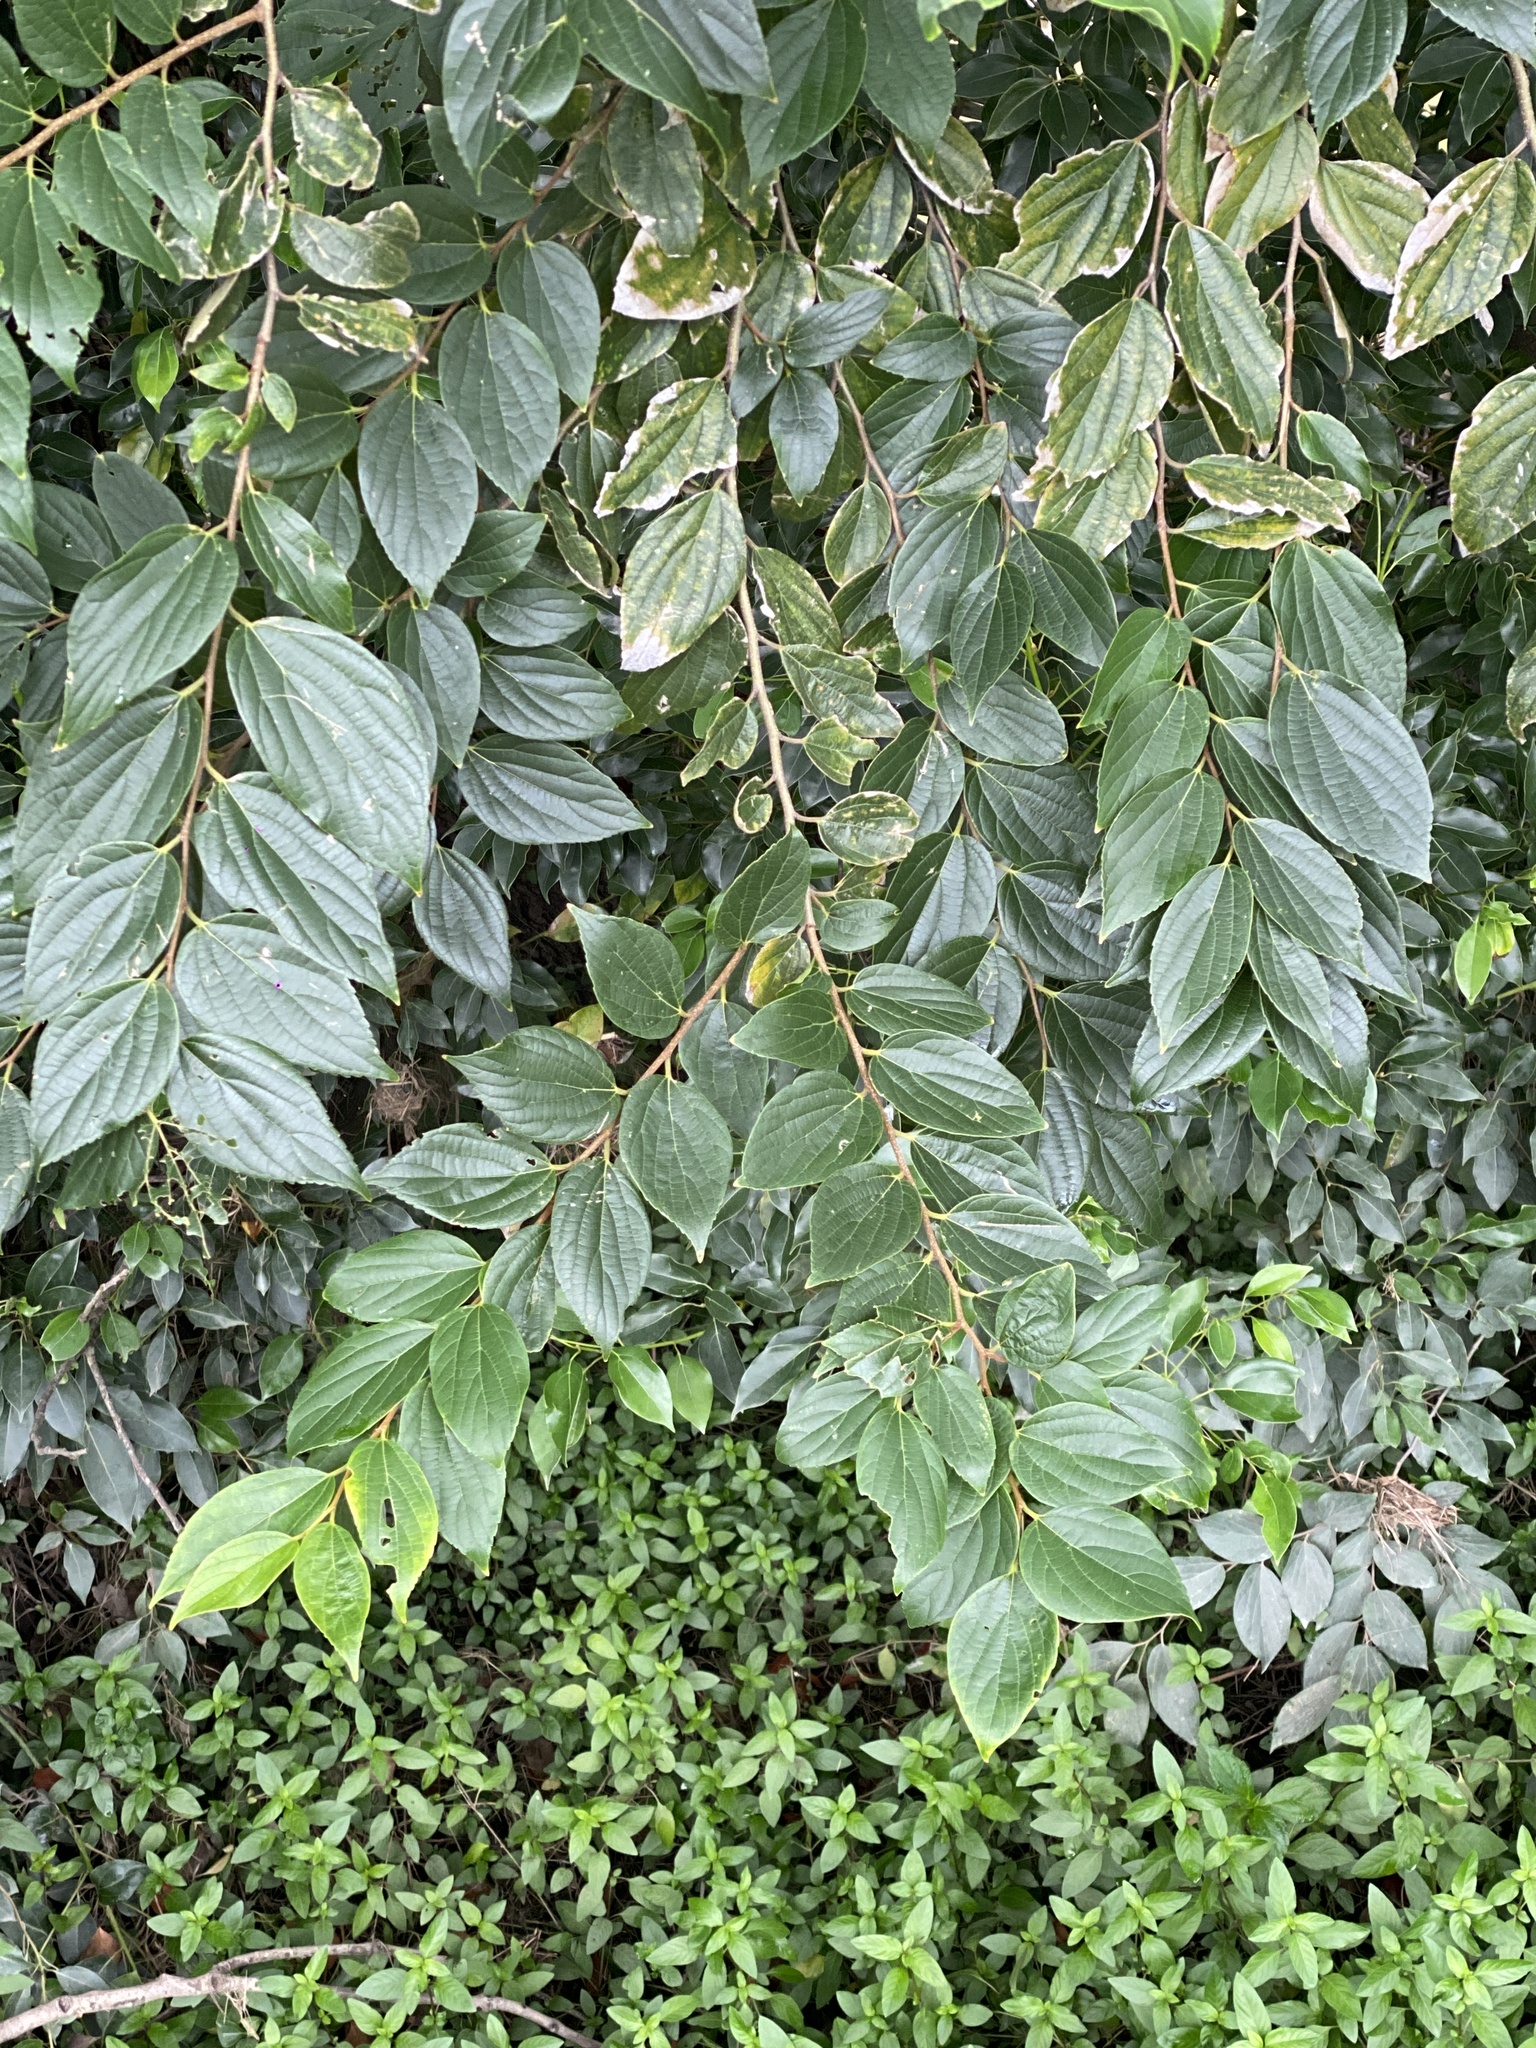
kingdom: Plantae
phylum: Tracheophyta
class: Magnoliopsida
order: Rosales
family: Cannabaceae
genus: Celtis
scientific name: Celtis sinensis
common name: Chinese hackberry
